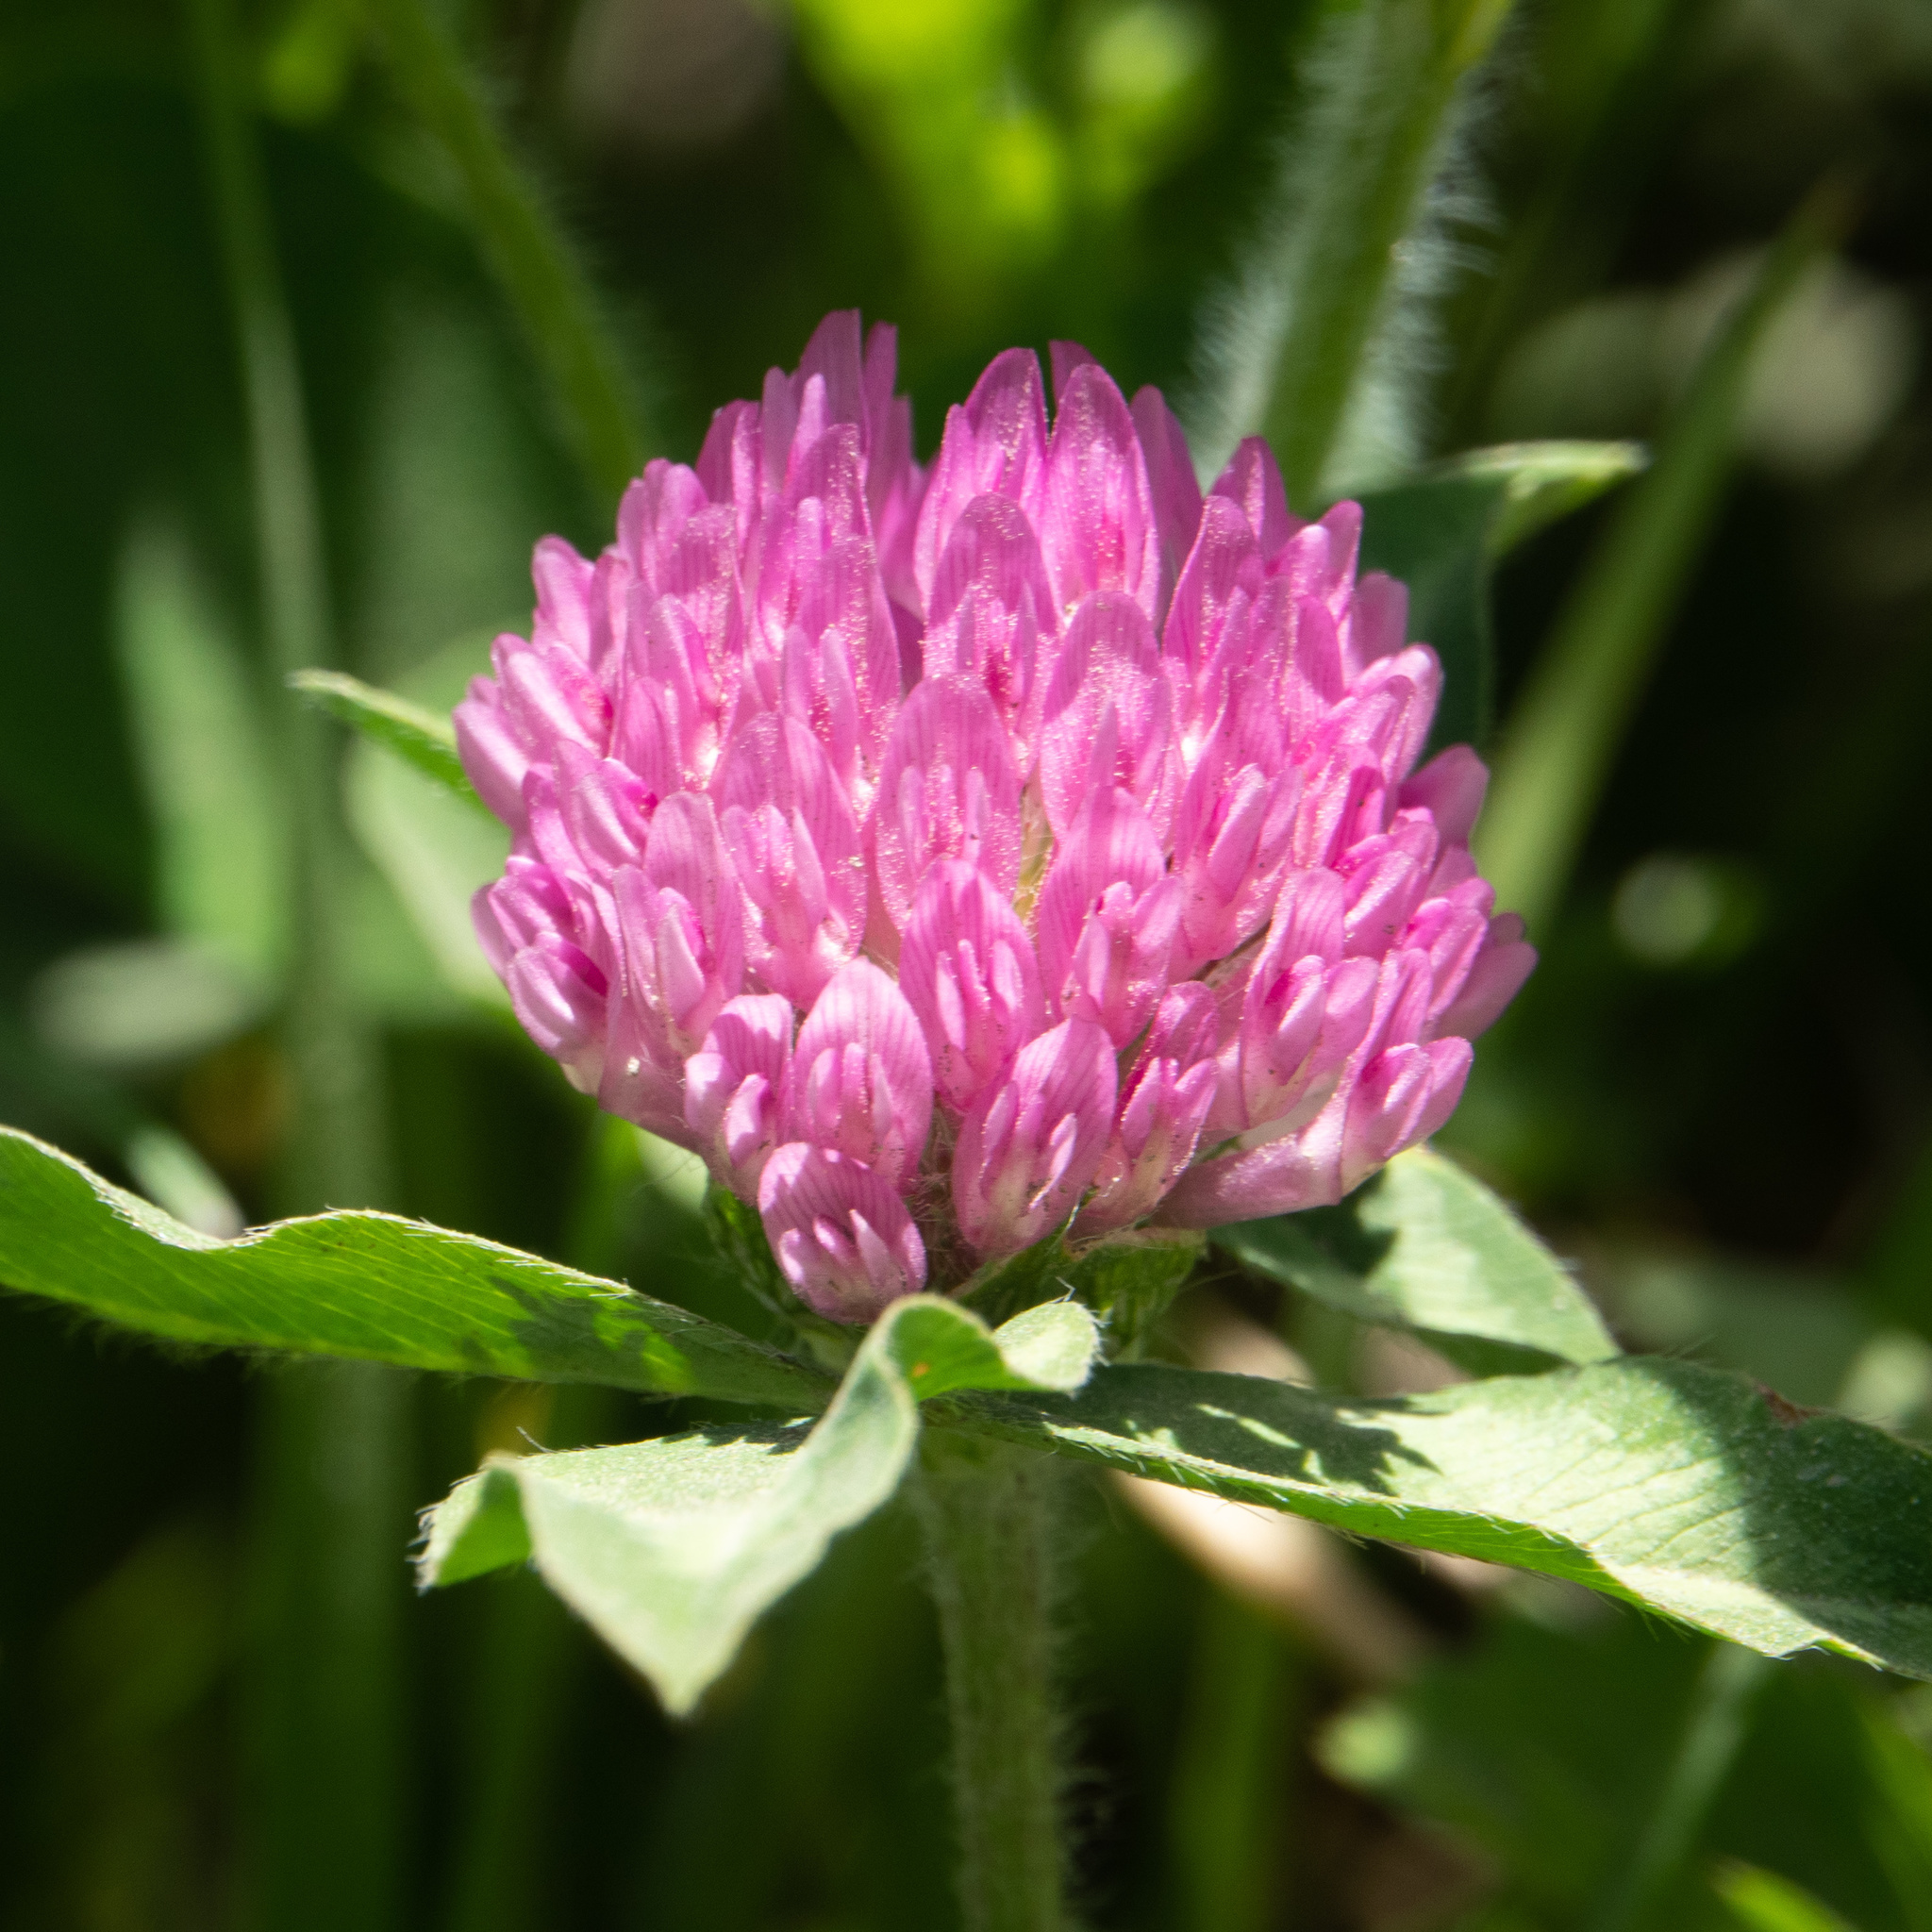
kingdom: Plantae
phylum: Tracheophyta
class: Magnoliopsida
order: Fabales
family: Fabaceae
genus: Trifolium
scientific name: Trifolium pratense
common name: Red clover
